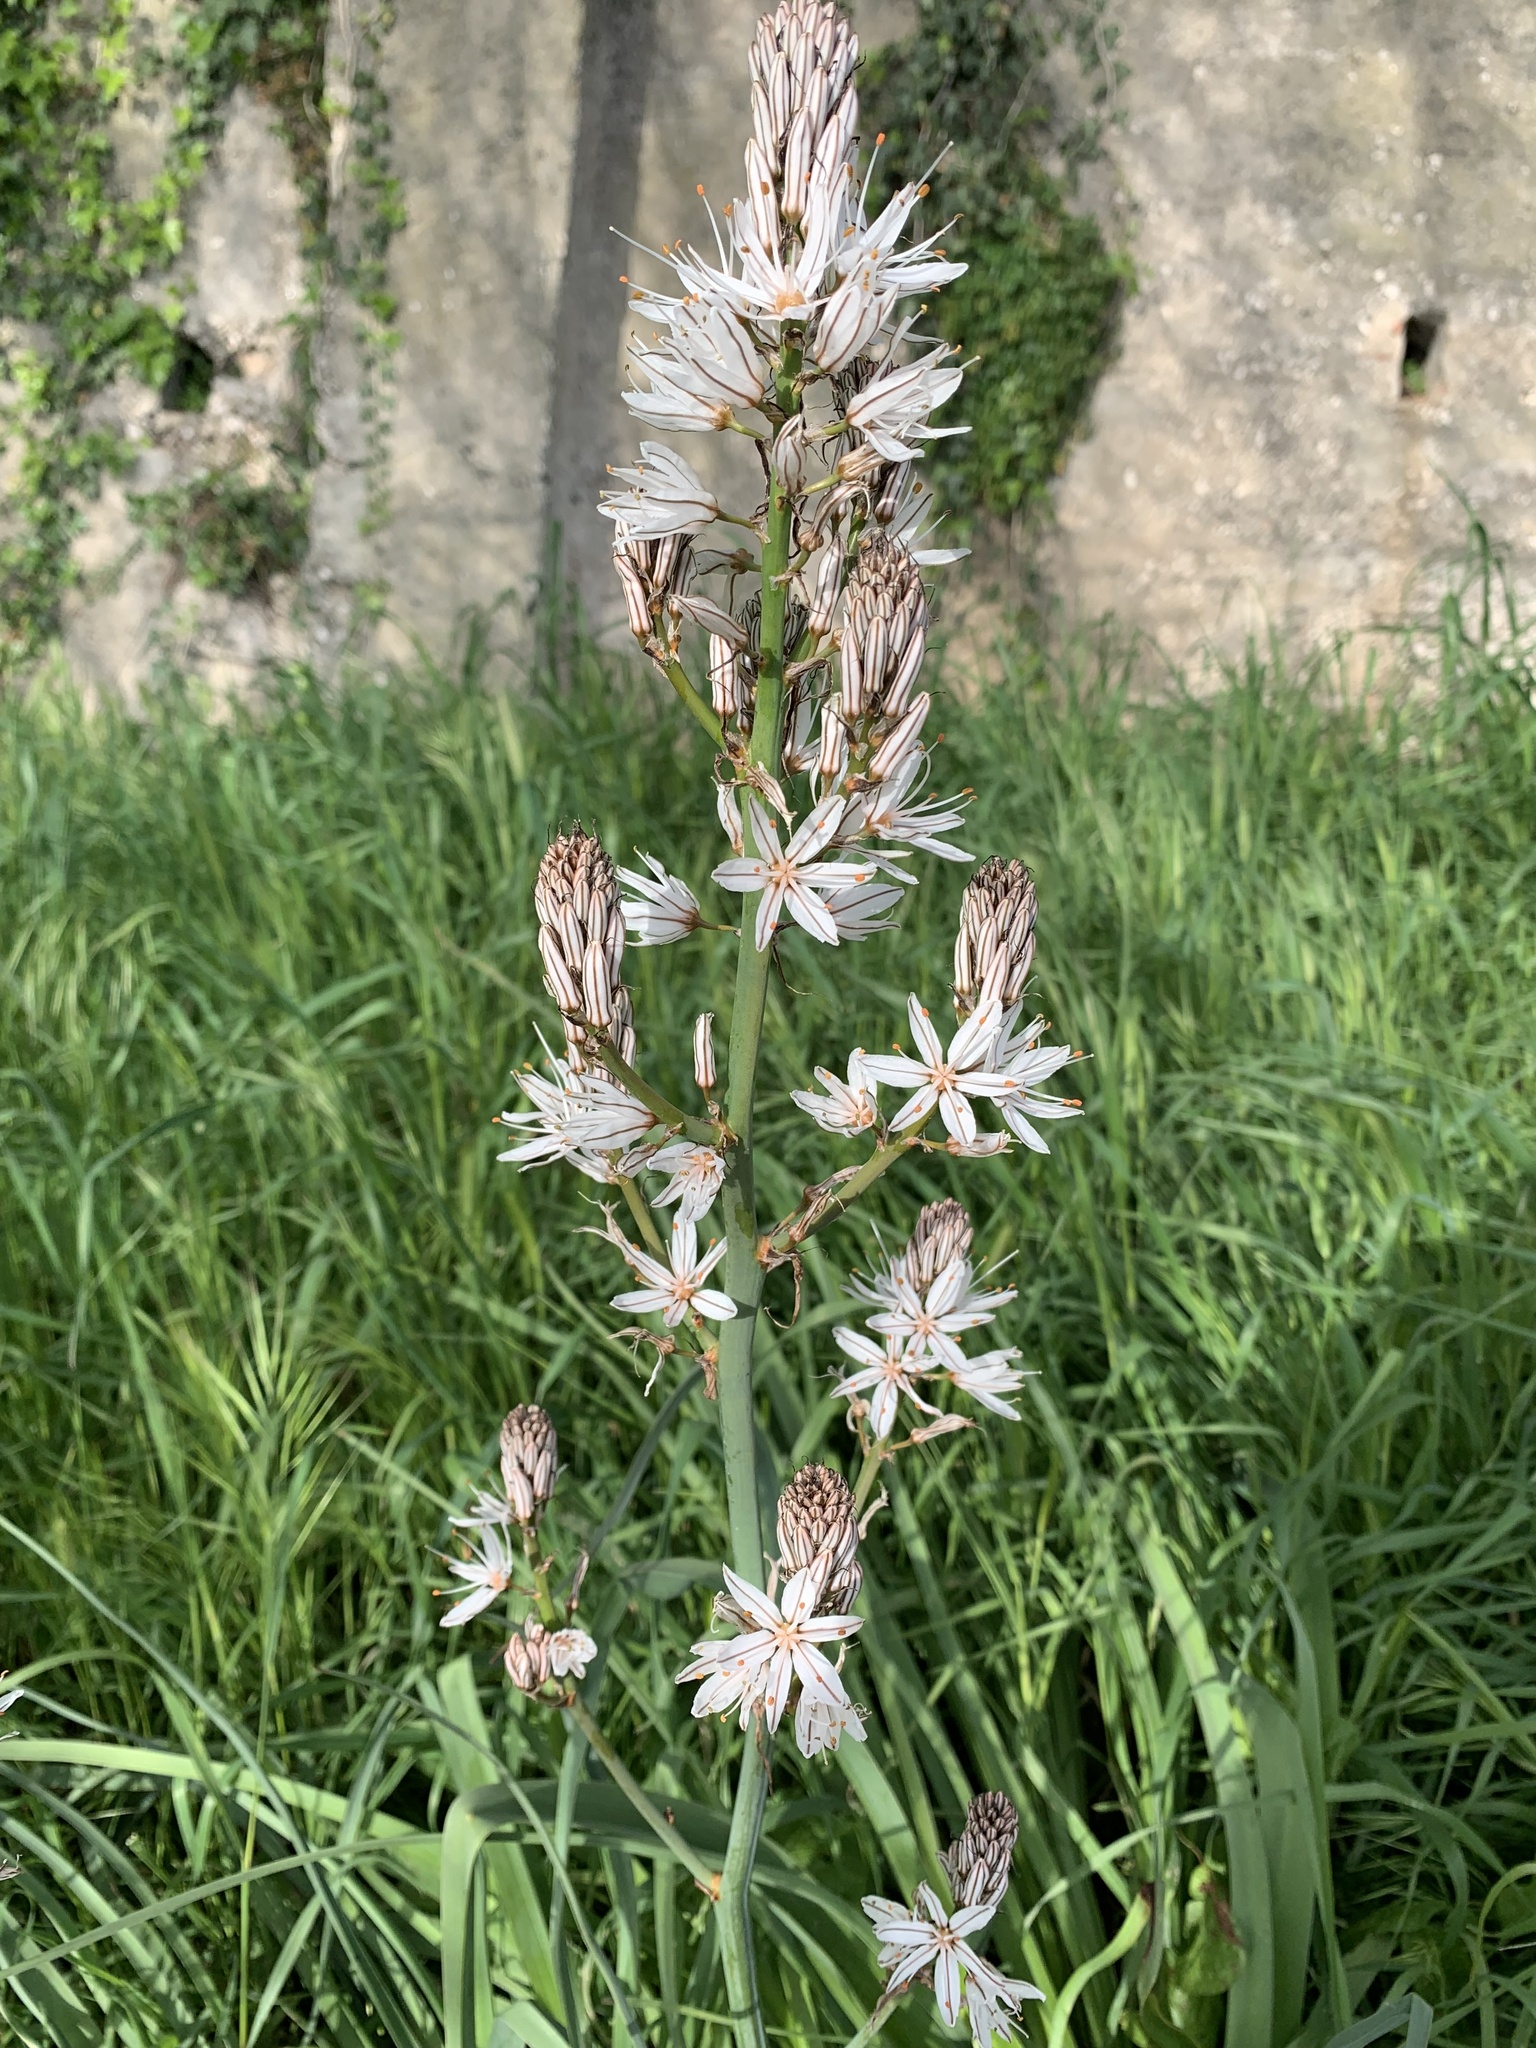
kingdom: Plantae
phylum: Tracheophyta
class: Liliopsida
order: Asparagales
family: Asphodelaceae
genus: Asphodelus
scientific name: Asphodelus ramosus
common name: Silverrod
